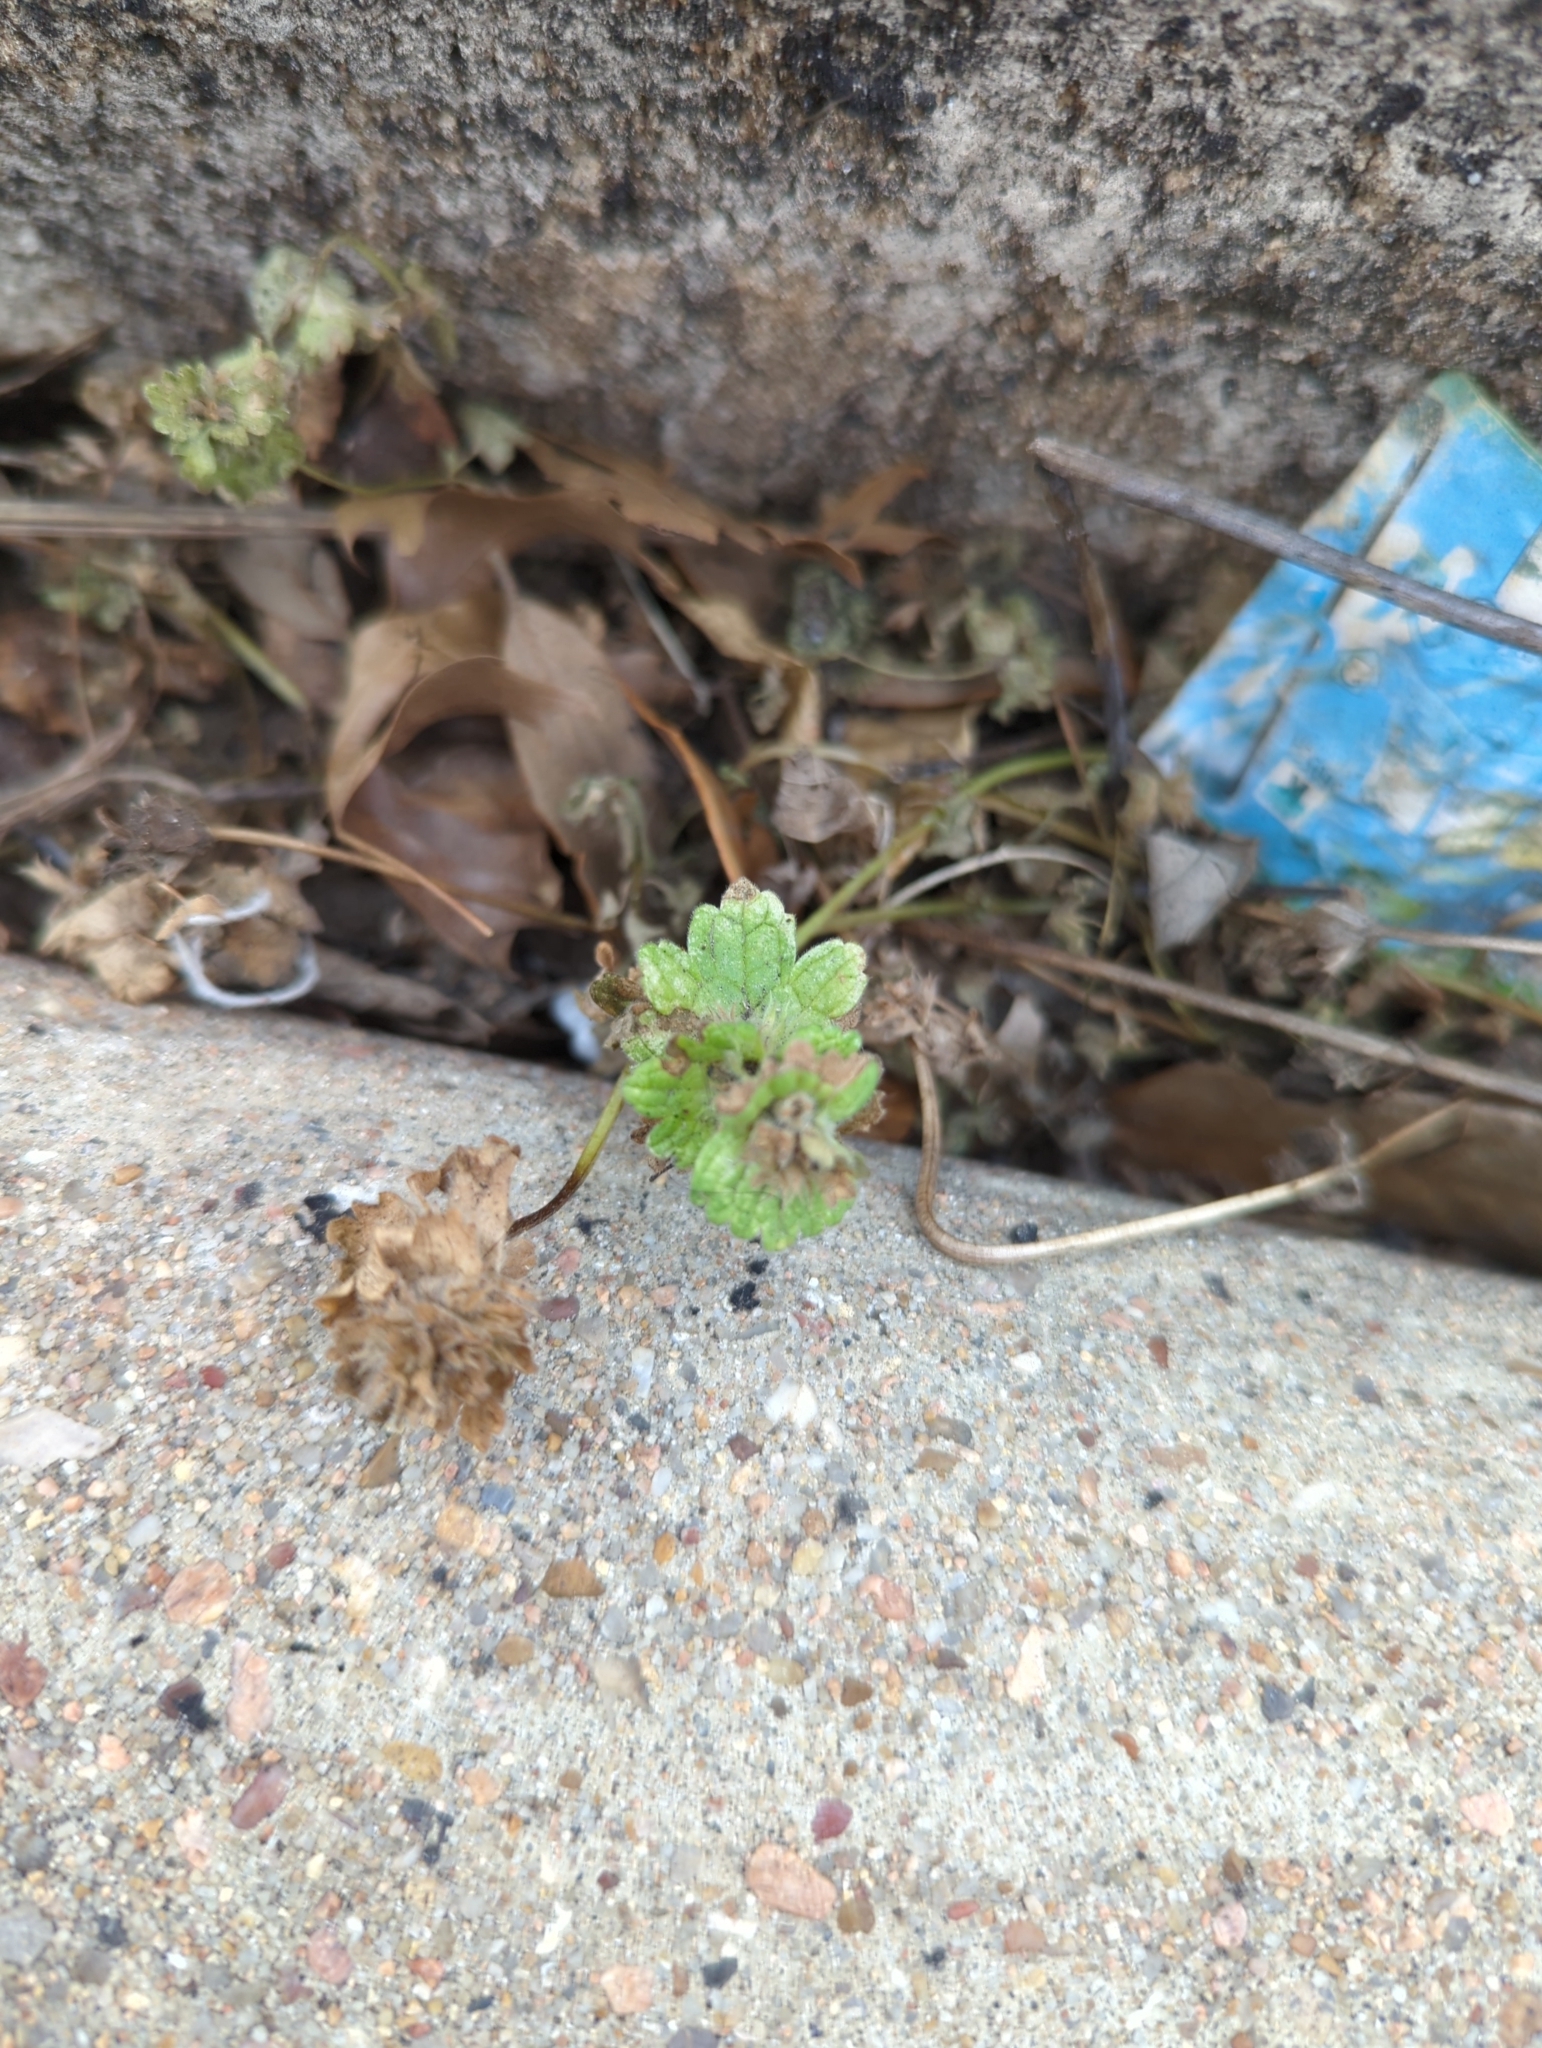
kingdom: Plantae
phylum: Tracheophyta
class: Magnoliopsida
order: Lamiales
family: Lamiaceae
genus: Lamium
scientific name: Lamium amplexicaule
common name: Henbit dead-nettle
